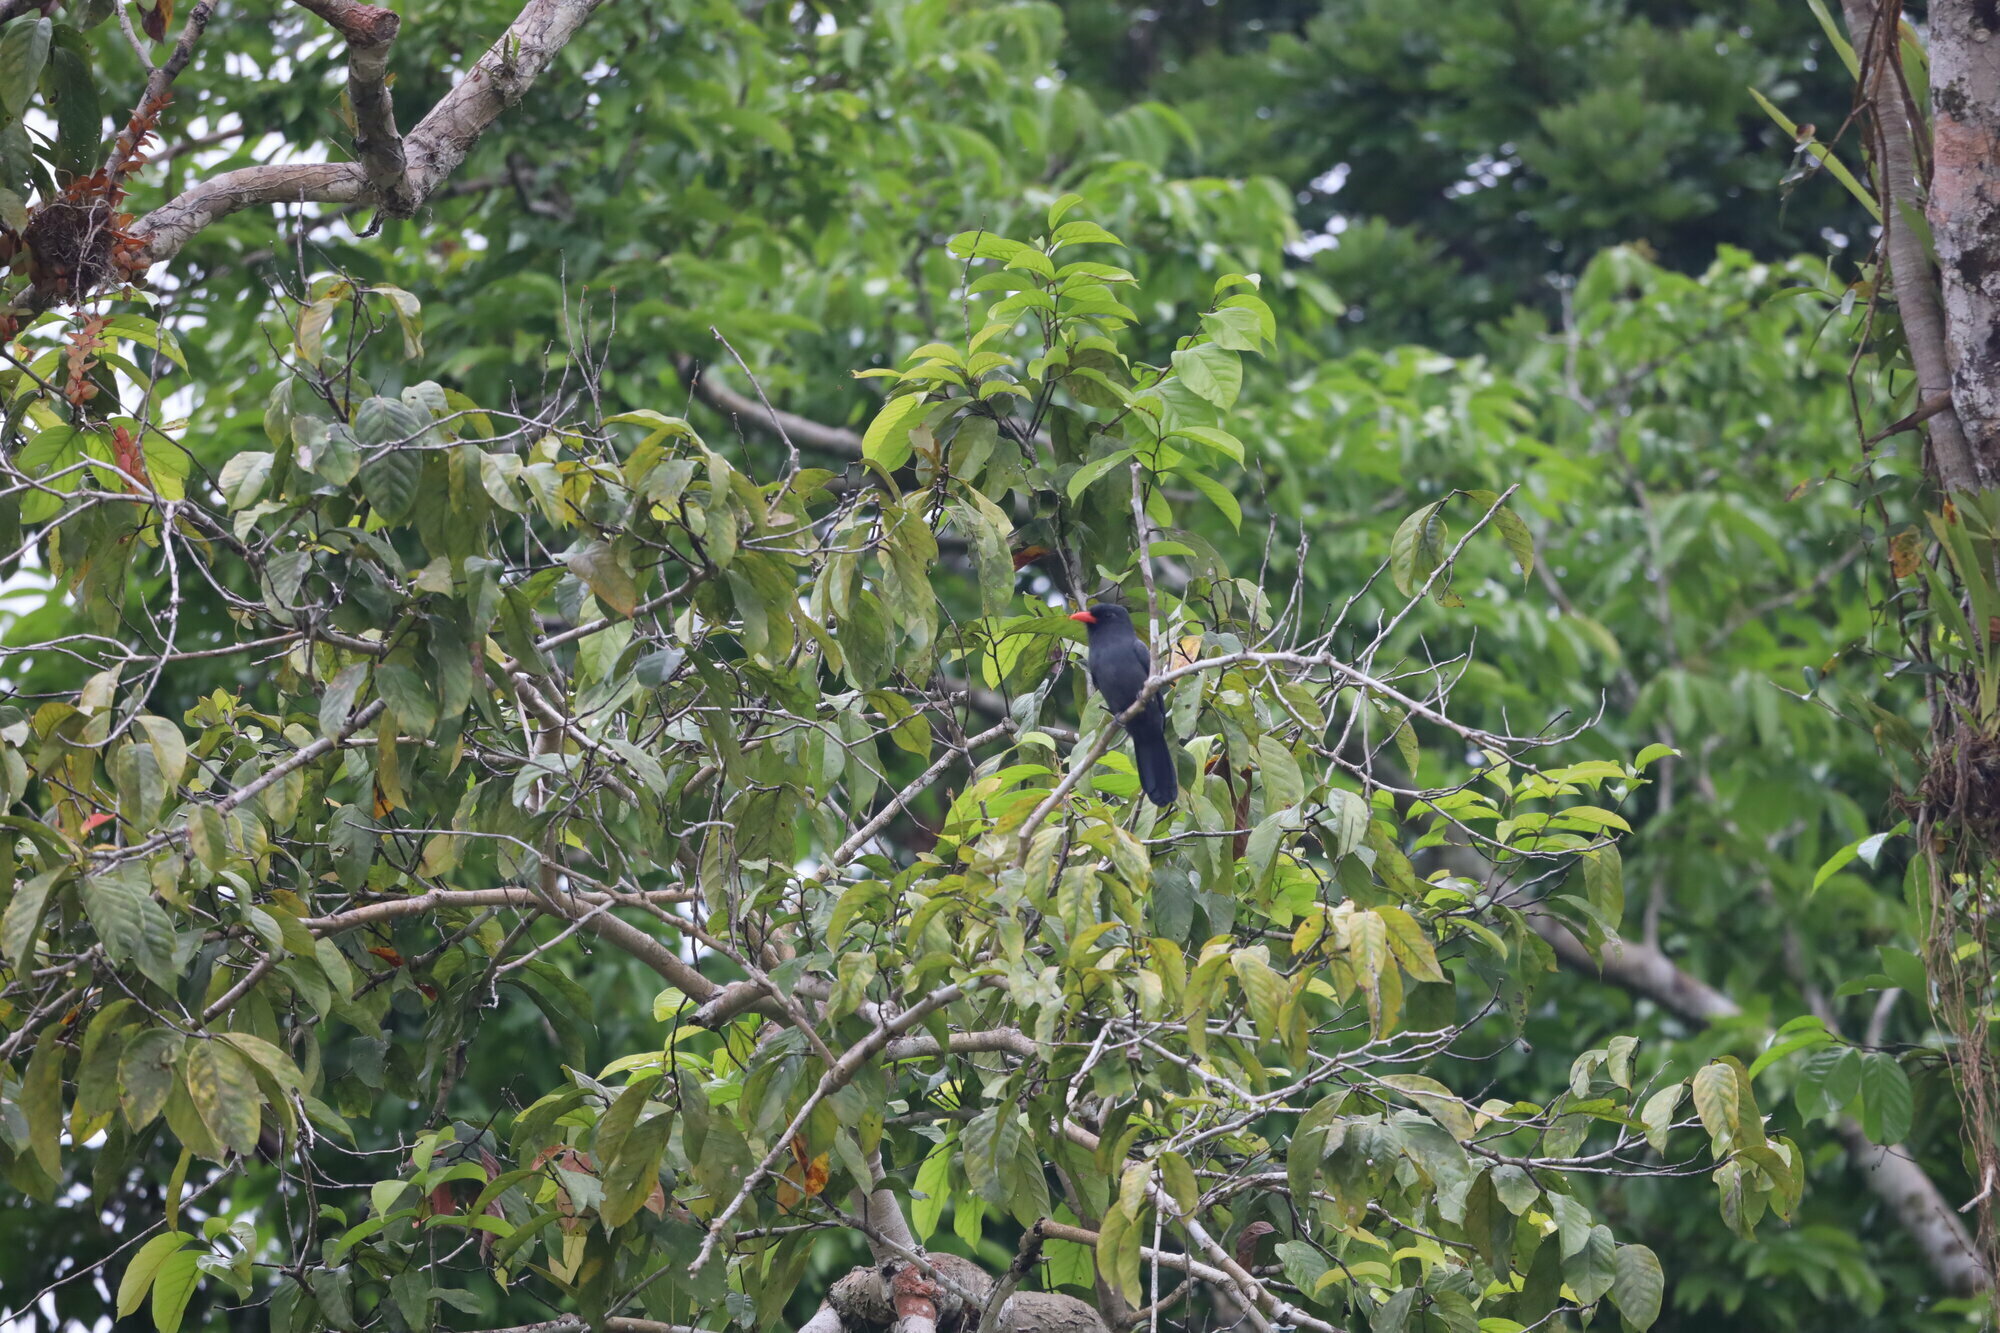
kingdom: Animalia
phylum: Chordata
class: Aves
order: Piciformes
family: Bucconidae
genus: Monasa
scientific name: Monasa nigrifrons
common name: Black-fronted nunbird
